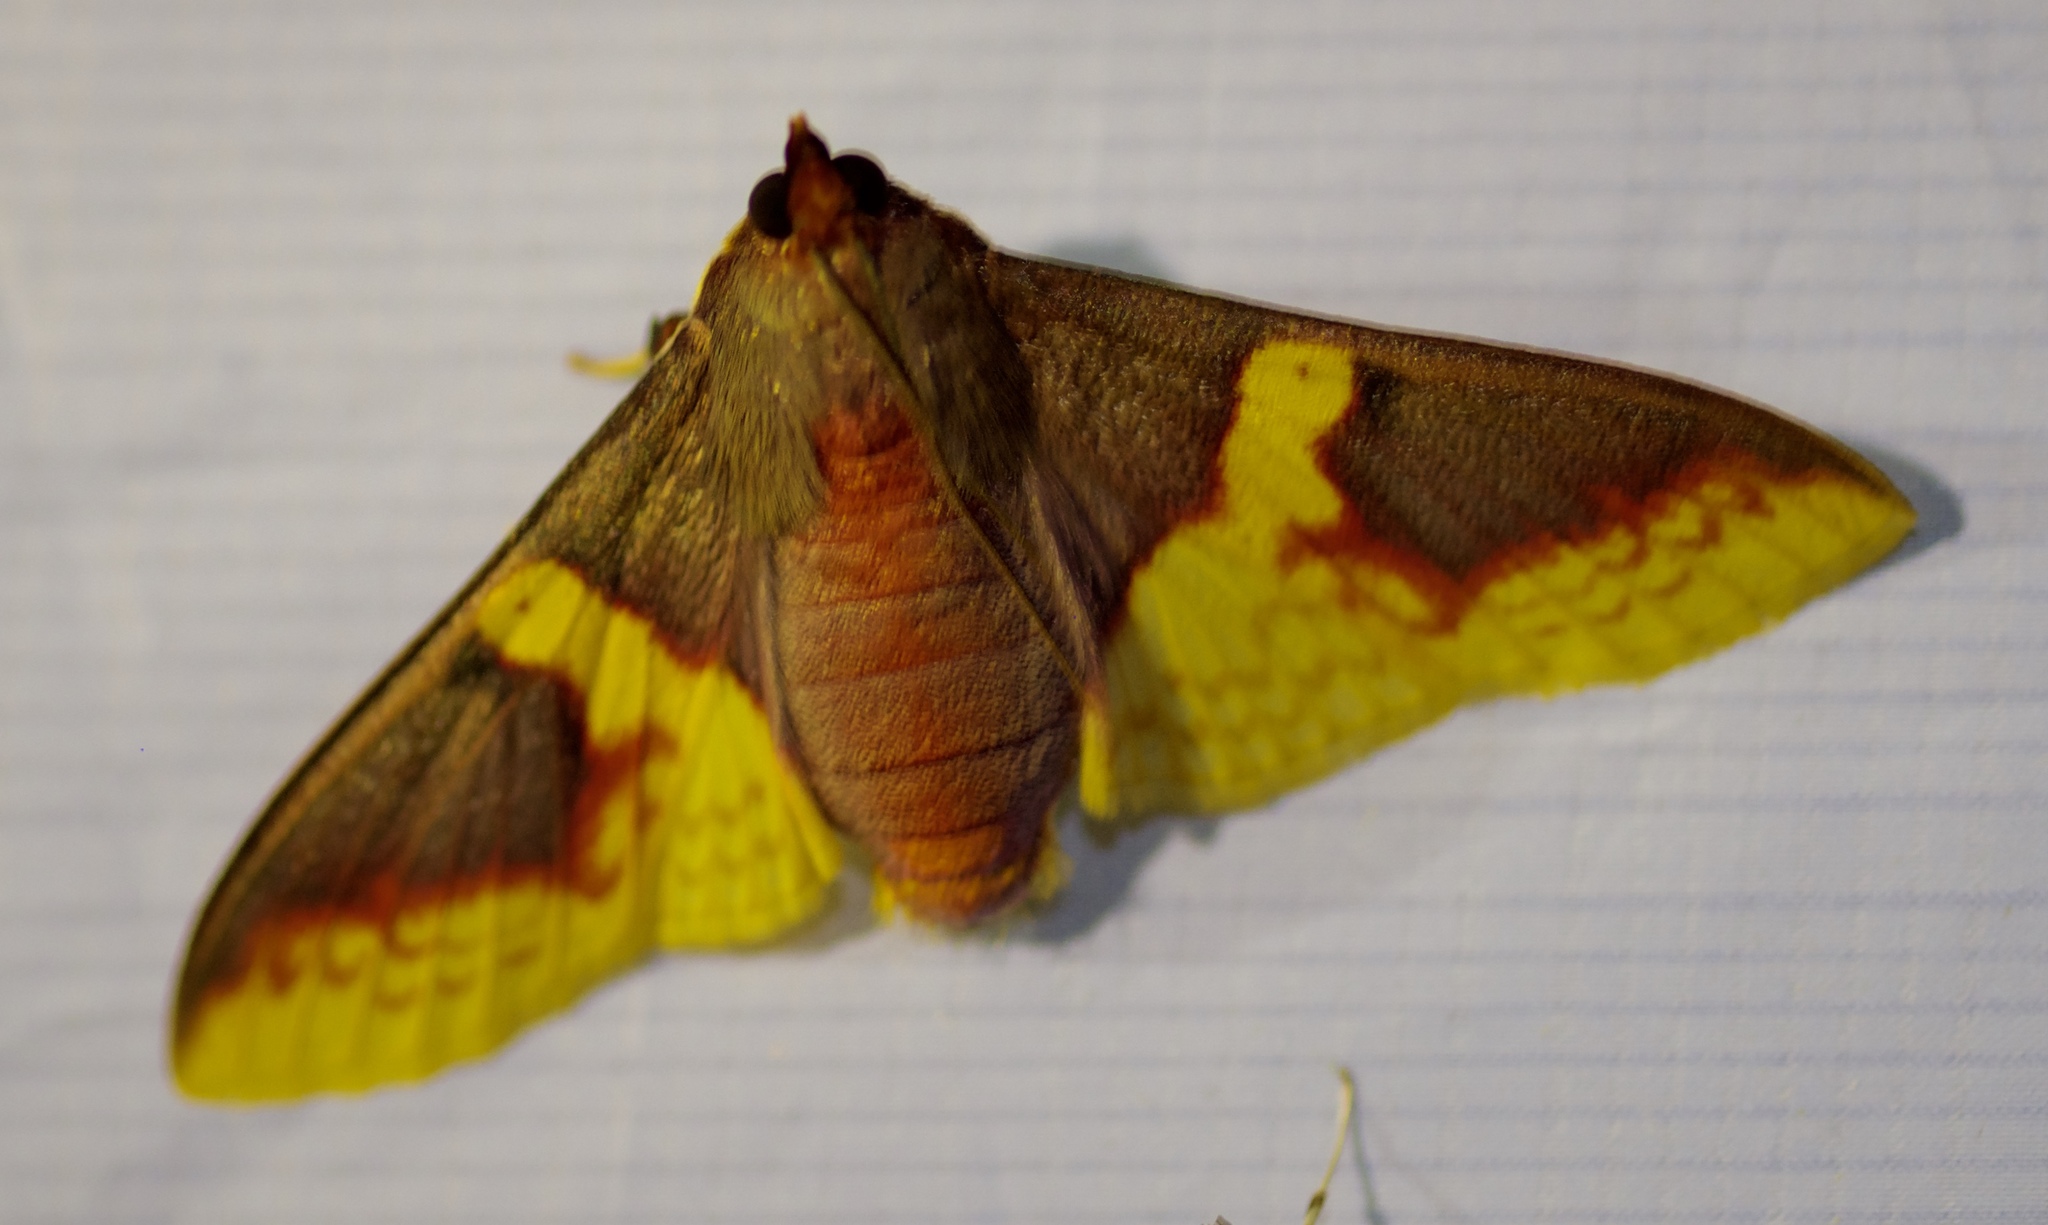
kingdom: Animalia
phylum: Arthropoda
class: Insecta
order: Lepidoptera
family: Crambidae
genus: Pachynoa
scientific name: Pachynoa purpuralis
